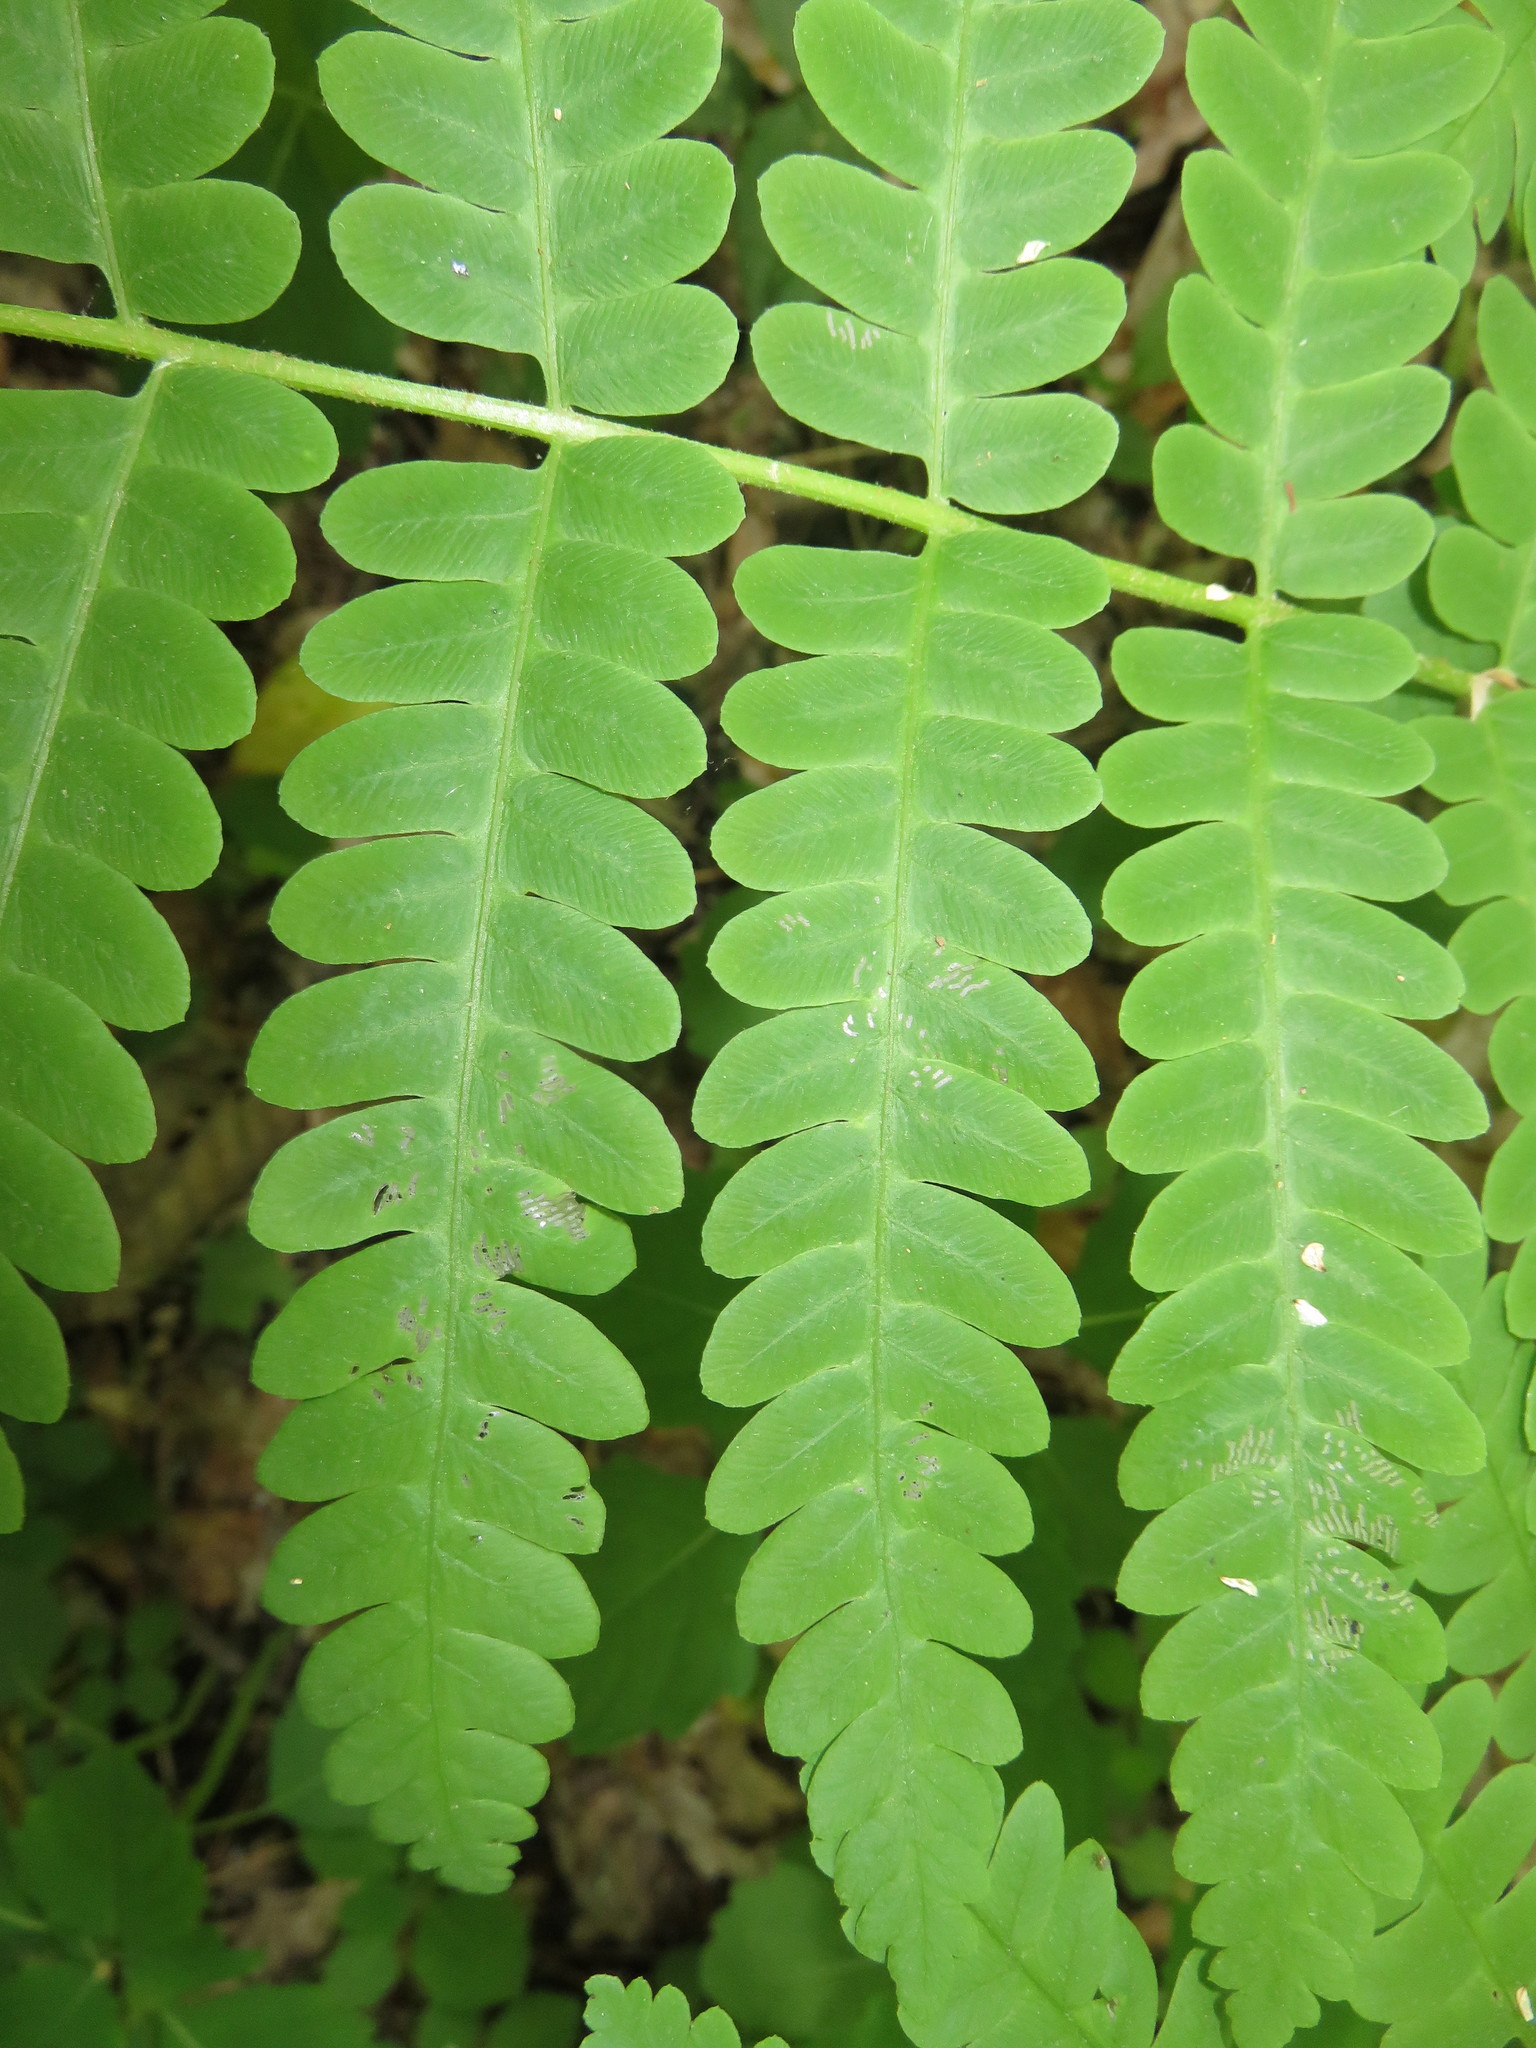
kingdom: Plantae
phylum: Tracheophyta
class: Polypodiopsida
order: Osmundales
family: Osmundaceae
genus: Claytosmunda
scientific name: Claytosmunda claytoniana
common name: Clayton's fern
